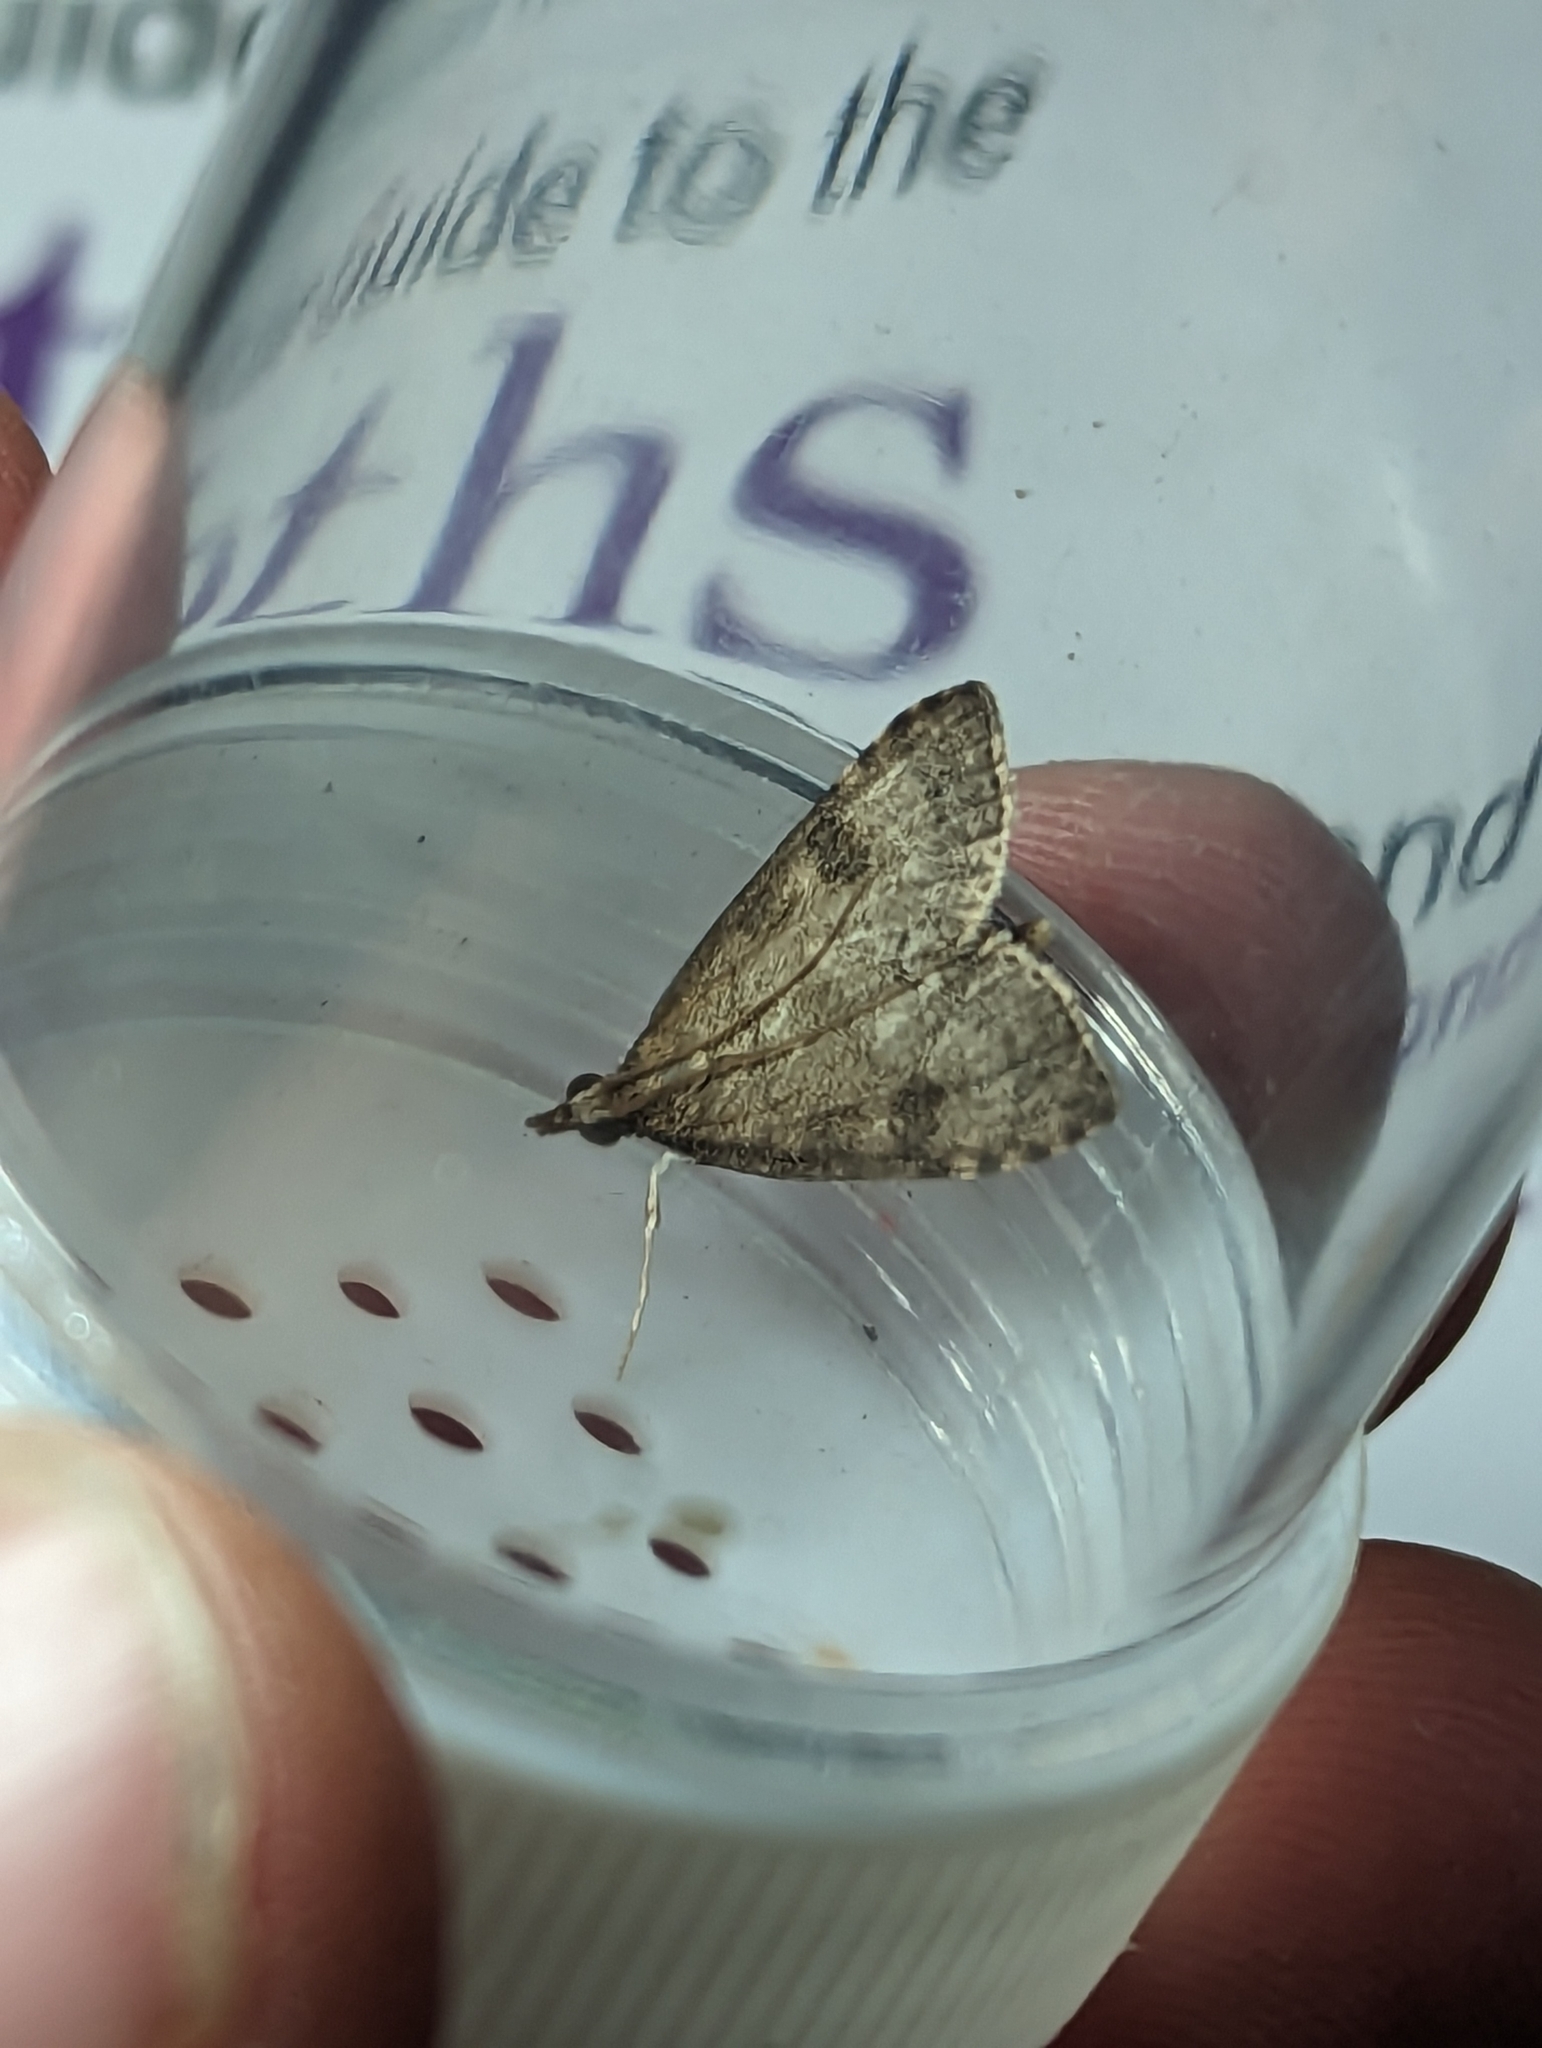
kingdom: Animalia
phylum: Arthropoda
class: Insecta
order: Lepidoptera
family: Crambidae
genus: Udea
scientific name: Udea prunalis
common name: Dusky pearl
